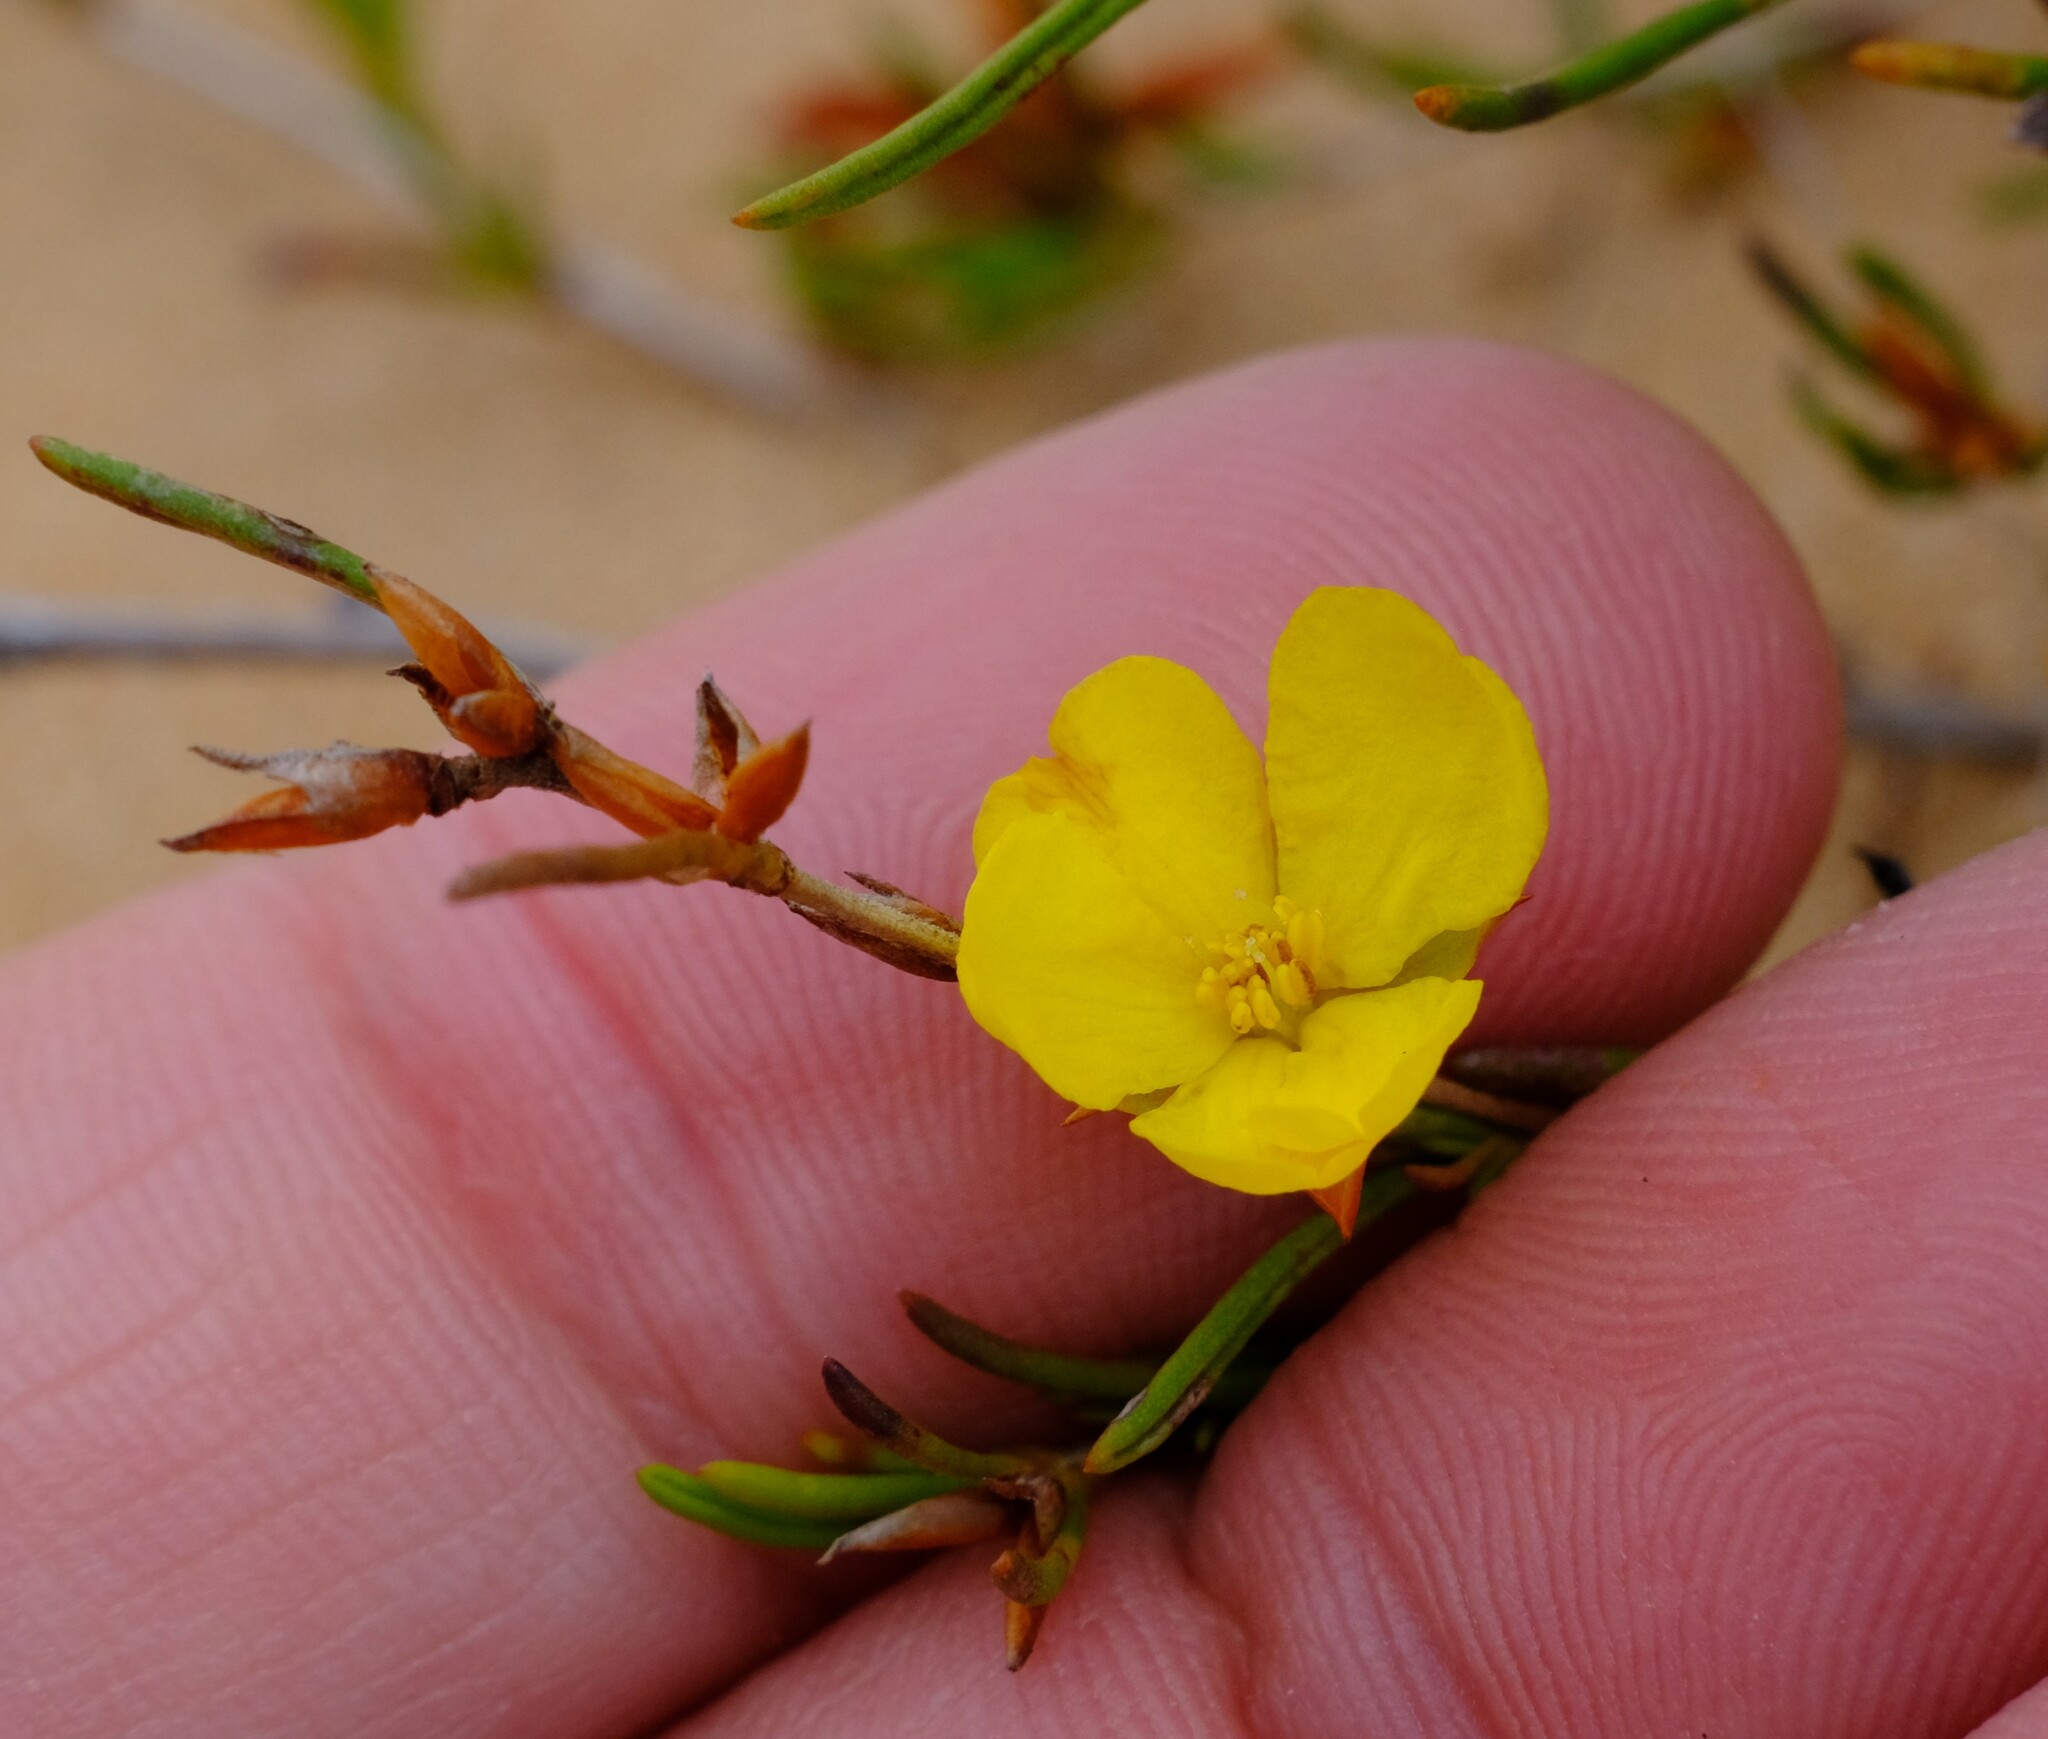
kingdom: Plantae
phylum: Tracheophyta
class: Magnoliopsida
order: Dilleniales
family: Dilleniaceae
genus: Hibbertia
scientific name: Hibbertia virgata
